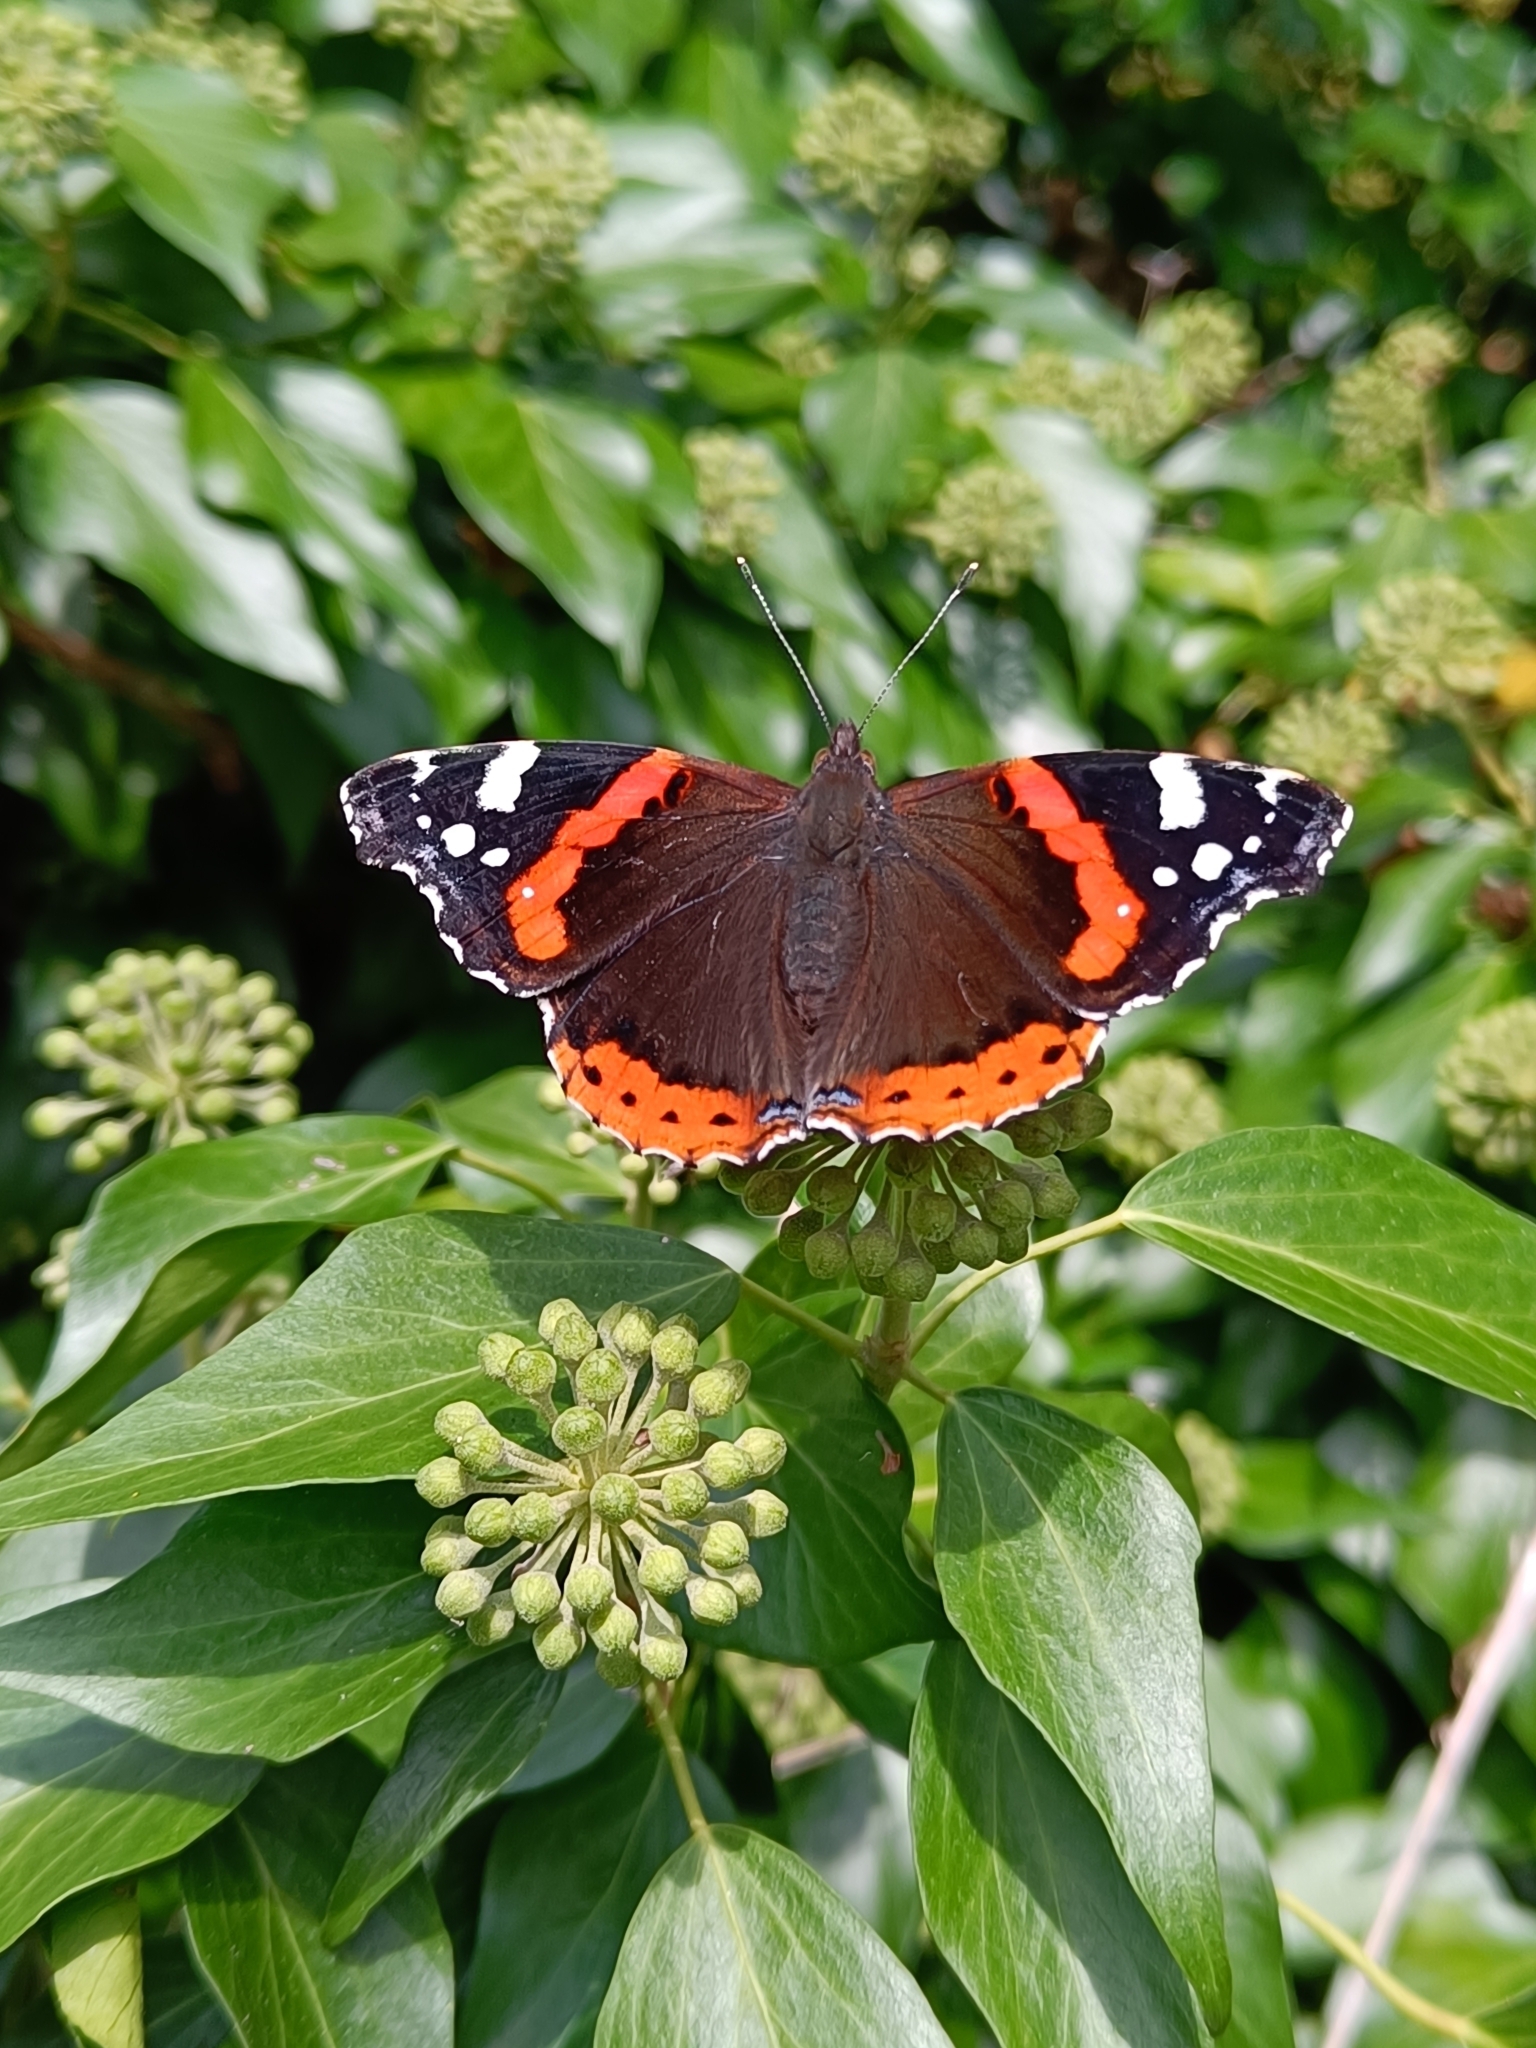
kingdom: Animalia
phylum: Arthropoda
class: Insecta
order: Lepidoptera
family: Nymphalidae
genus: Vanessa
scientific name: Vanessa atalanta
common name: Red admiral
